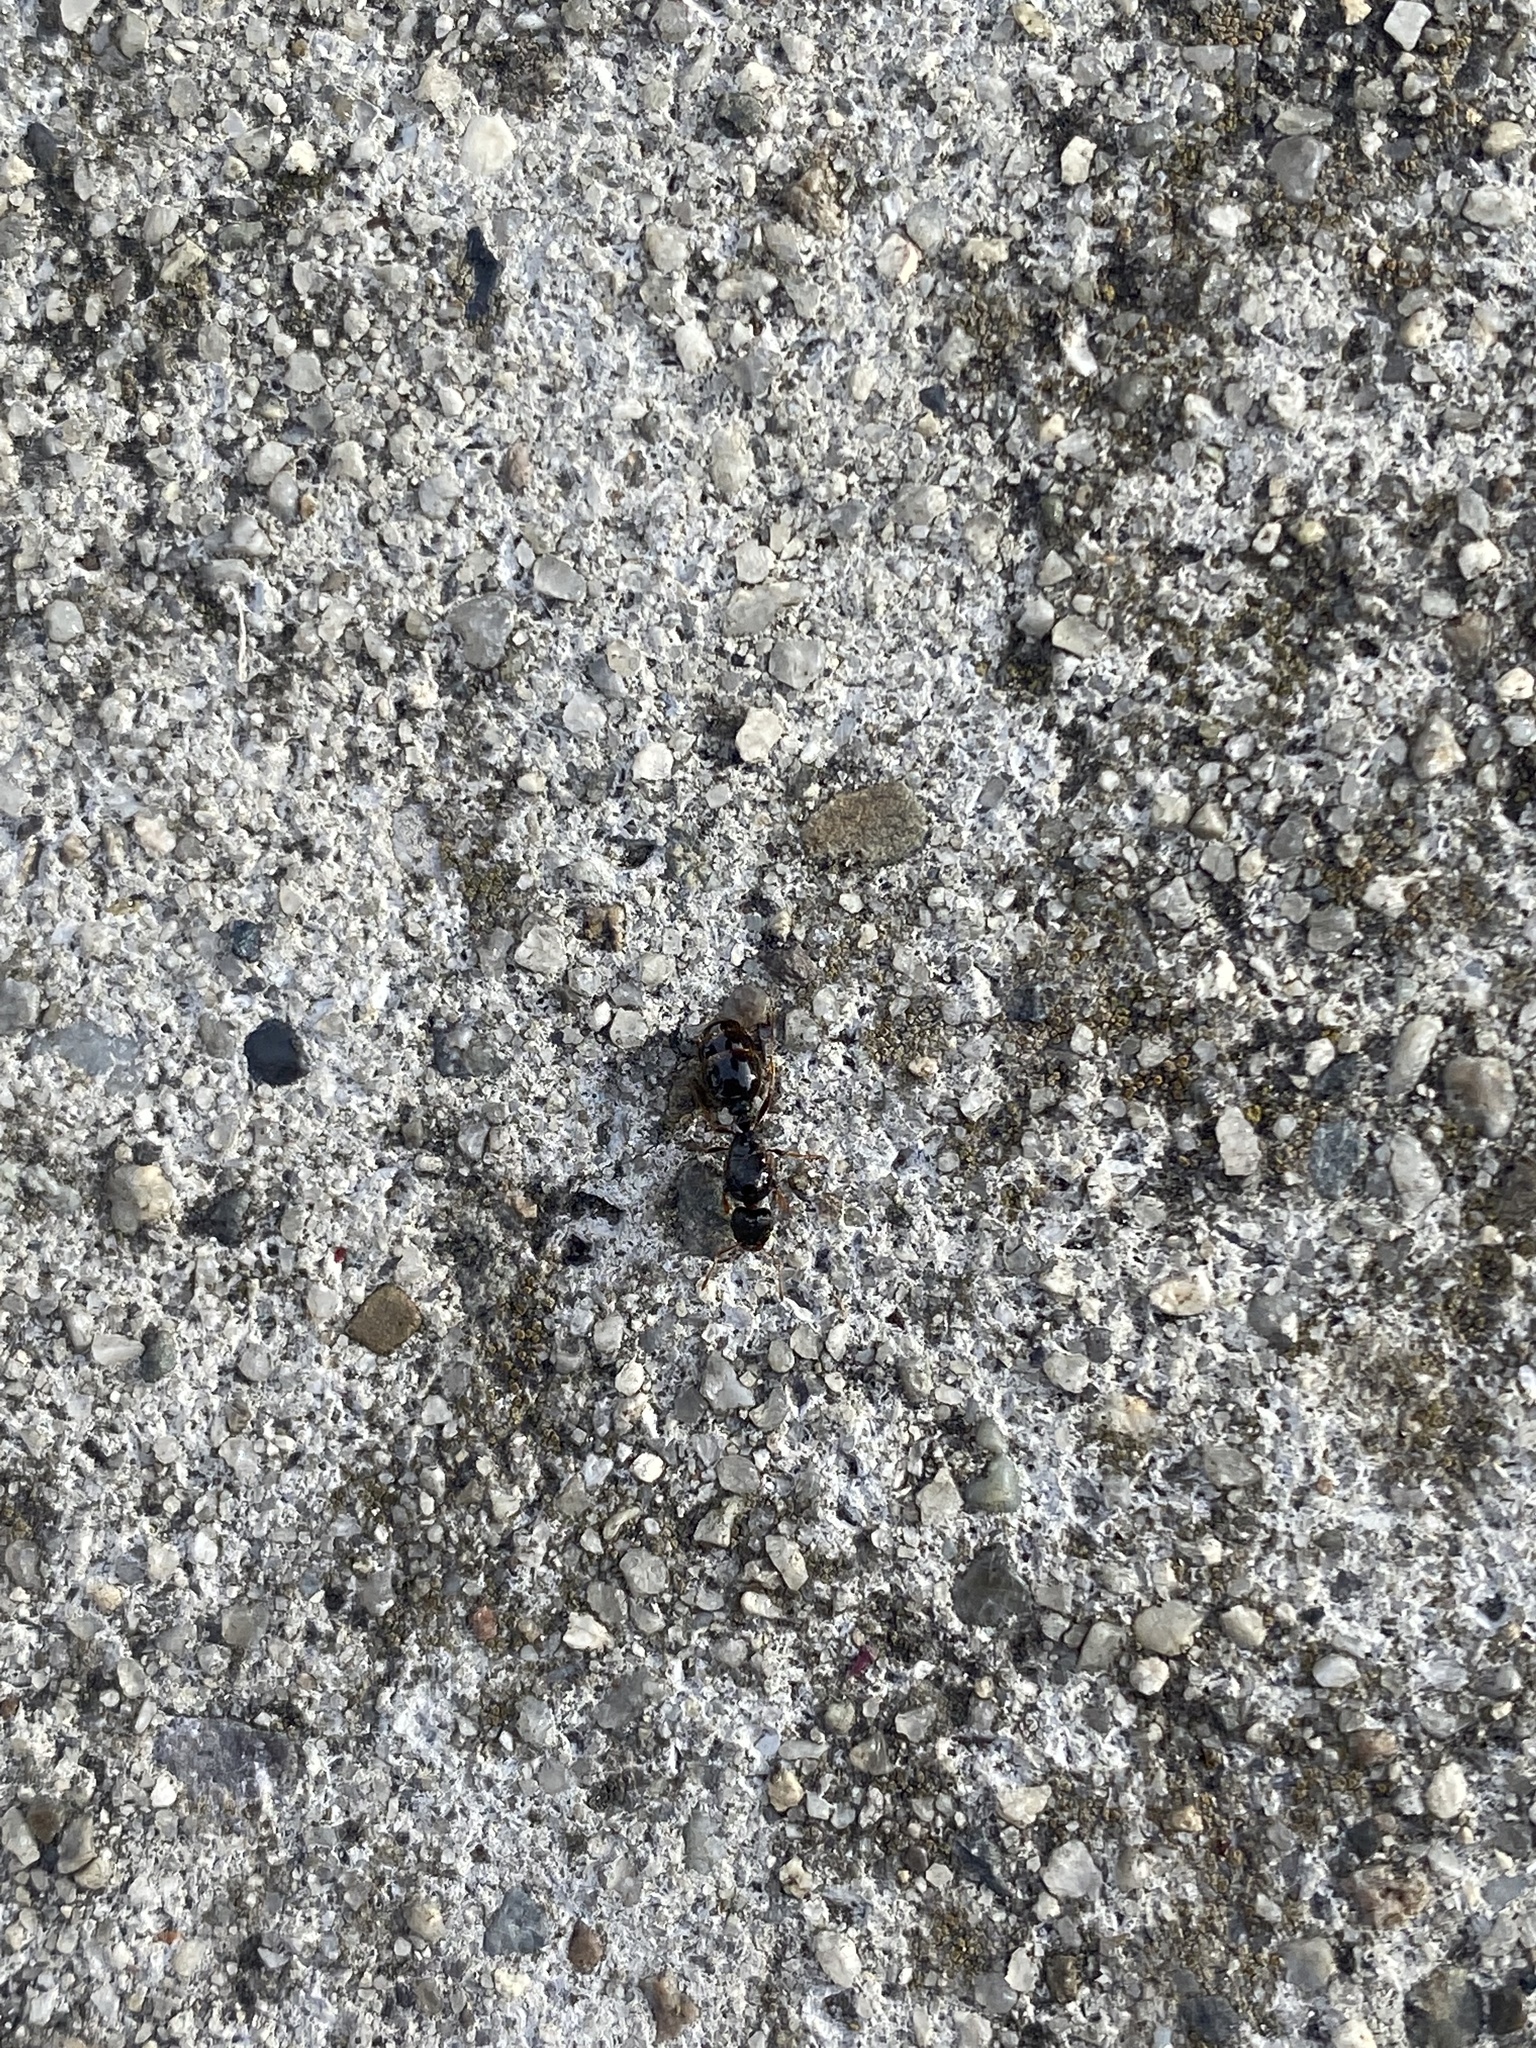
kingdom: Animalia
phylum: Arthropoda
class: Insecta
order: Hymenoptera
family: Formicidae
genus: Tetramorium
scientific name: Tetramorium immigrans
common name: Pavement ant
